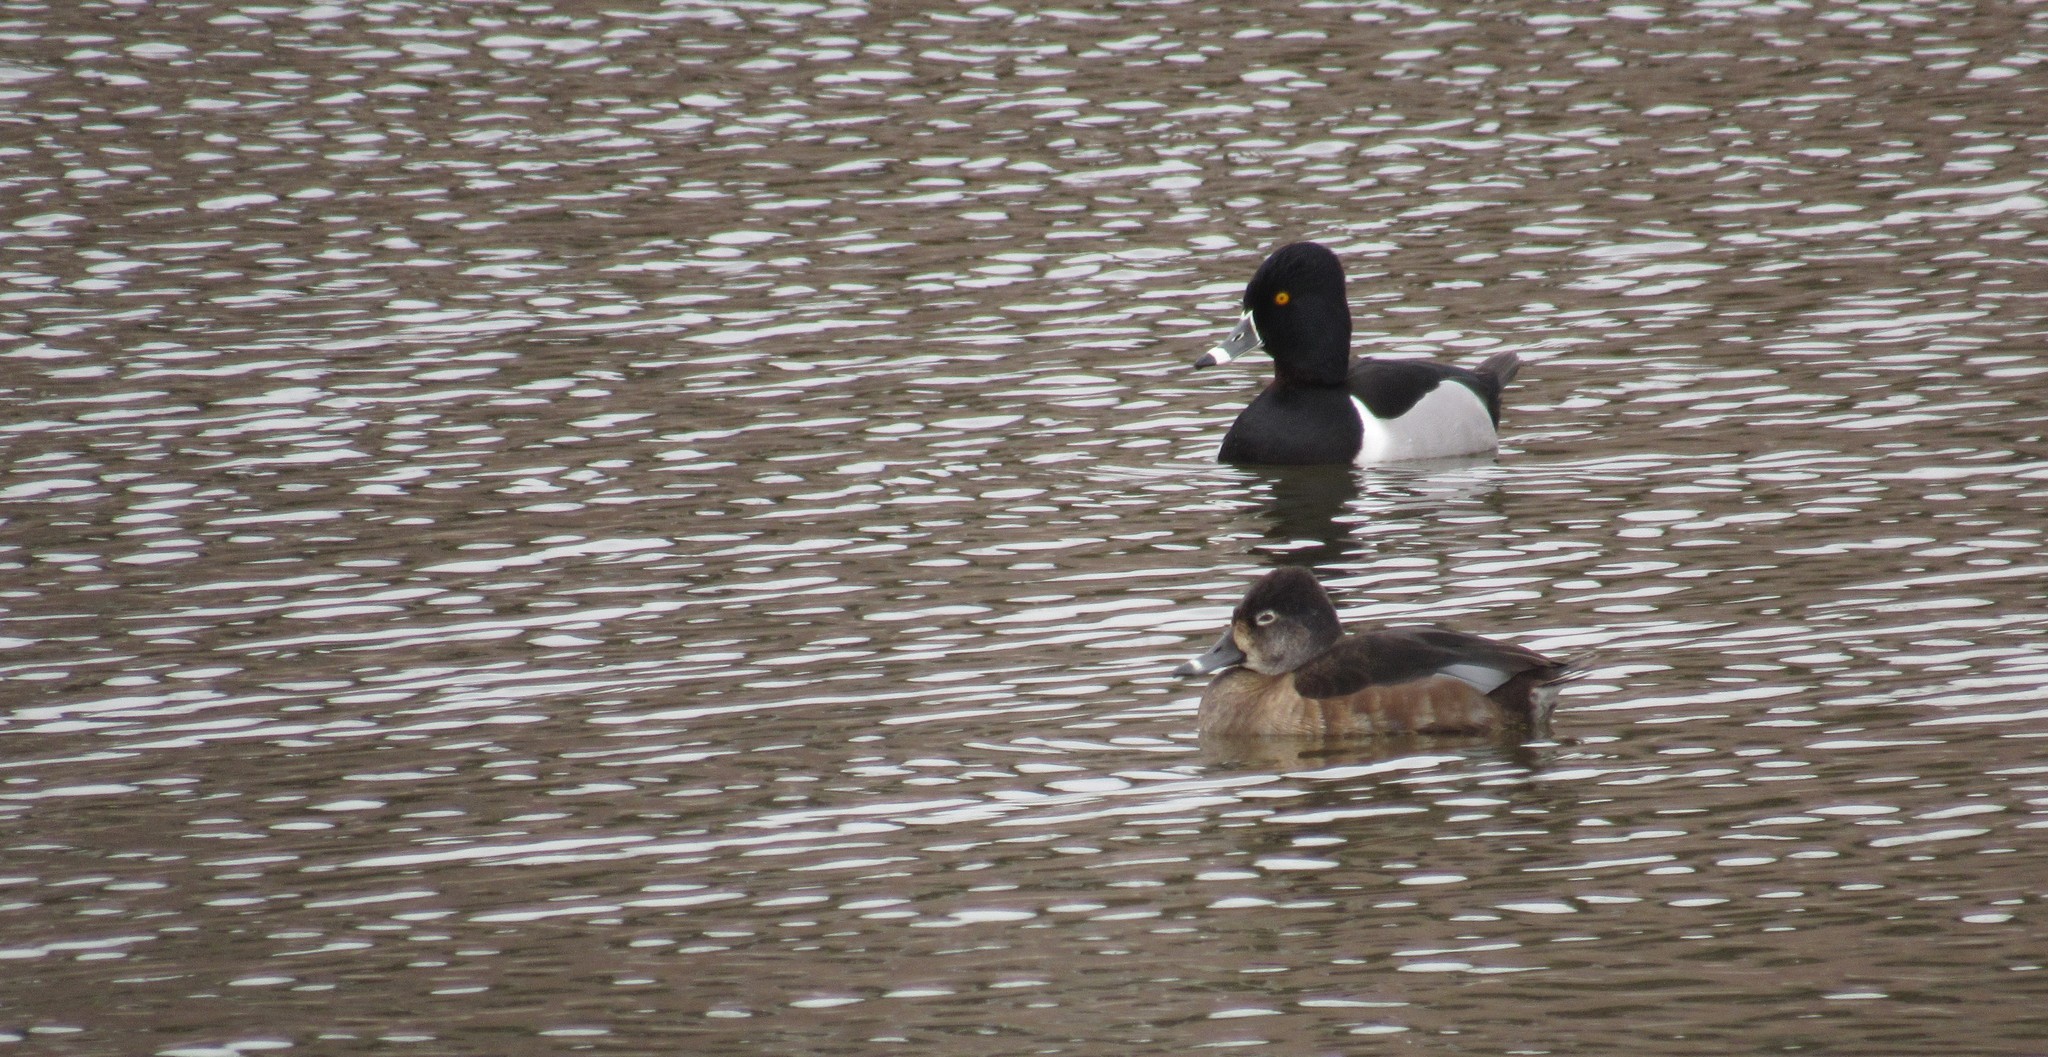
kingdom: Animalia
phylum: Chordata
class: Aves
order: Anseriformes
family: Anatidae
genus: Aythya
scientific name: Aythya collaris
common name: Ring-necked duck
